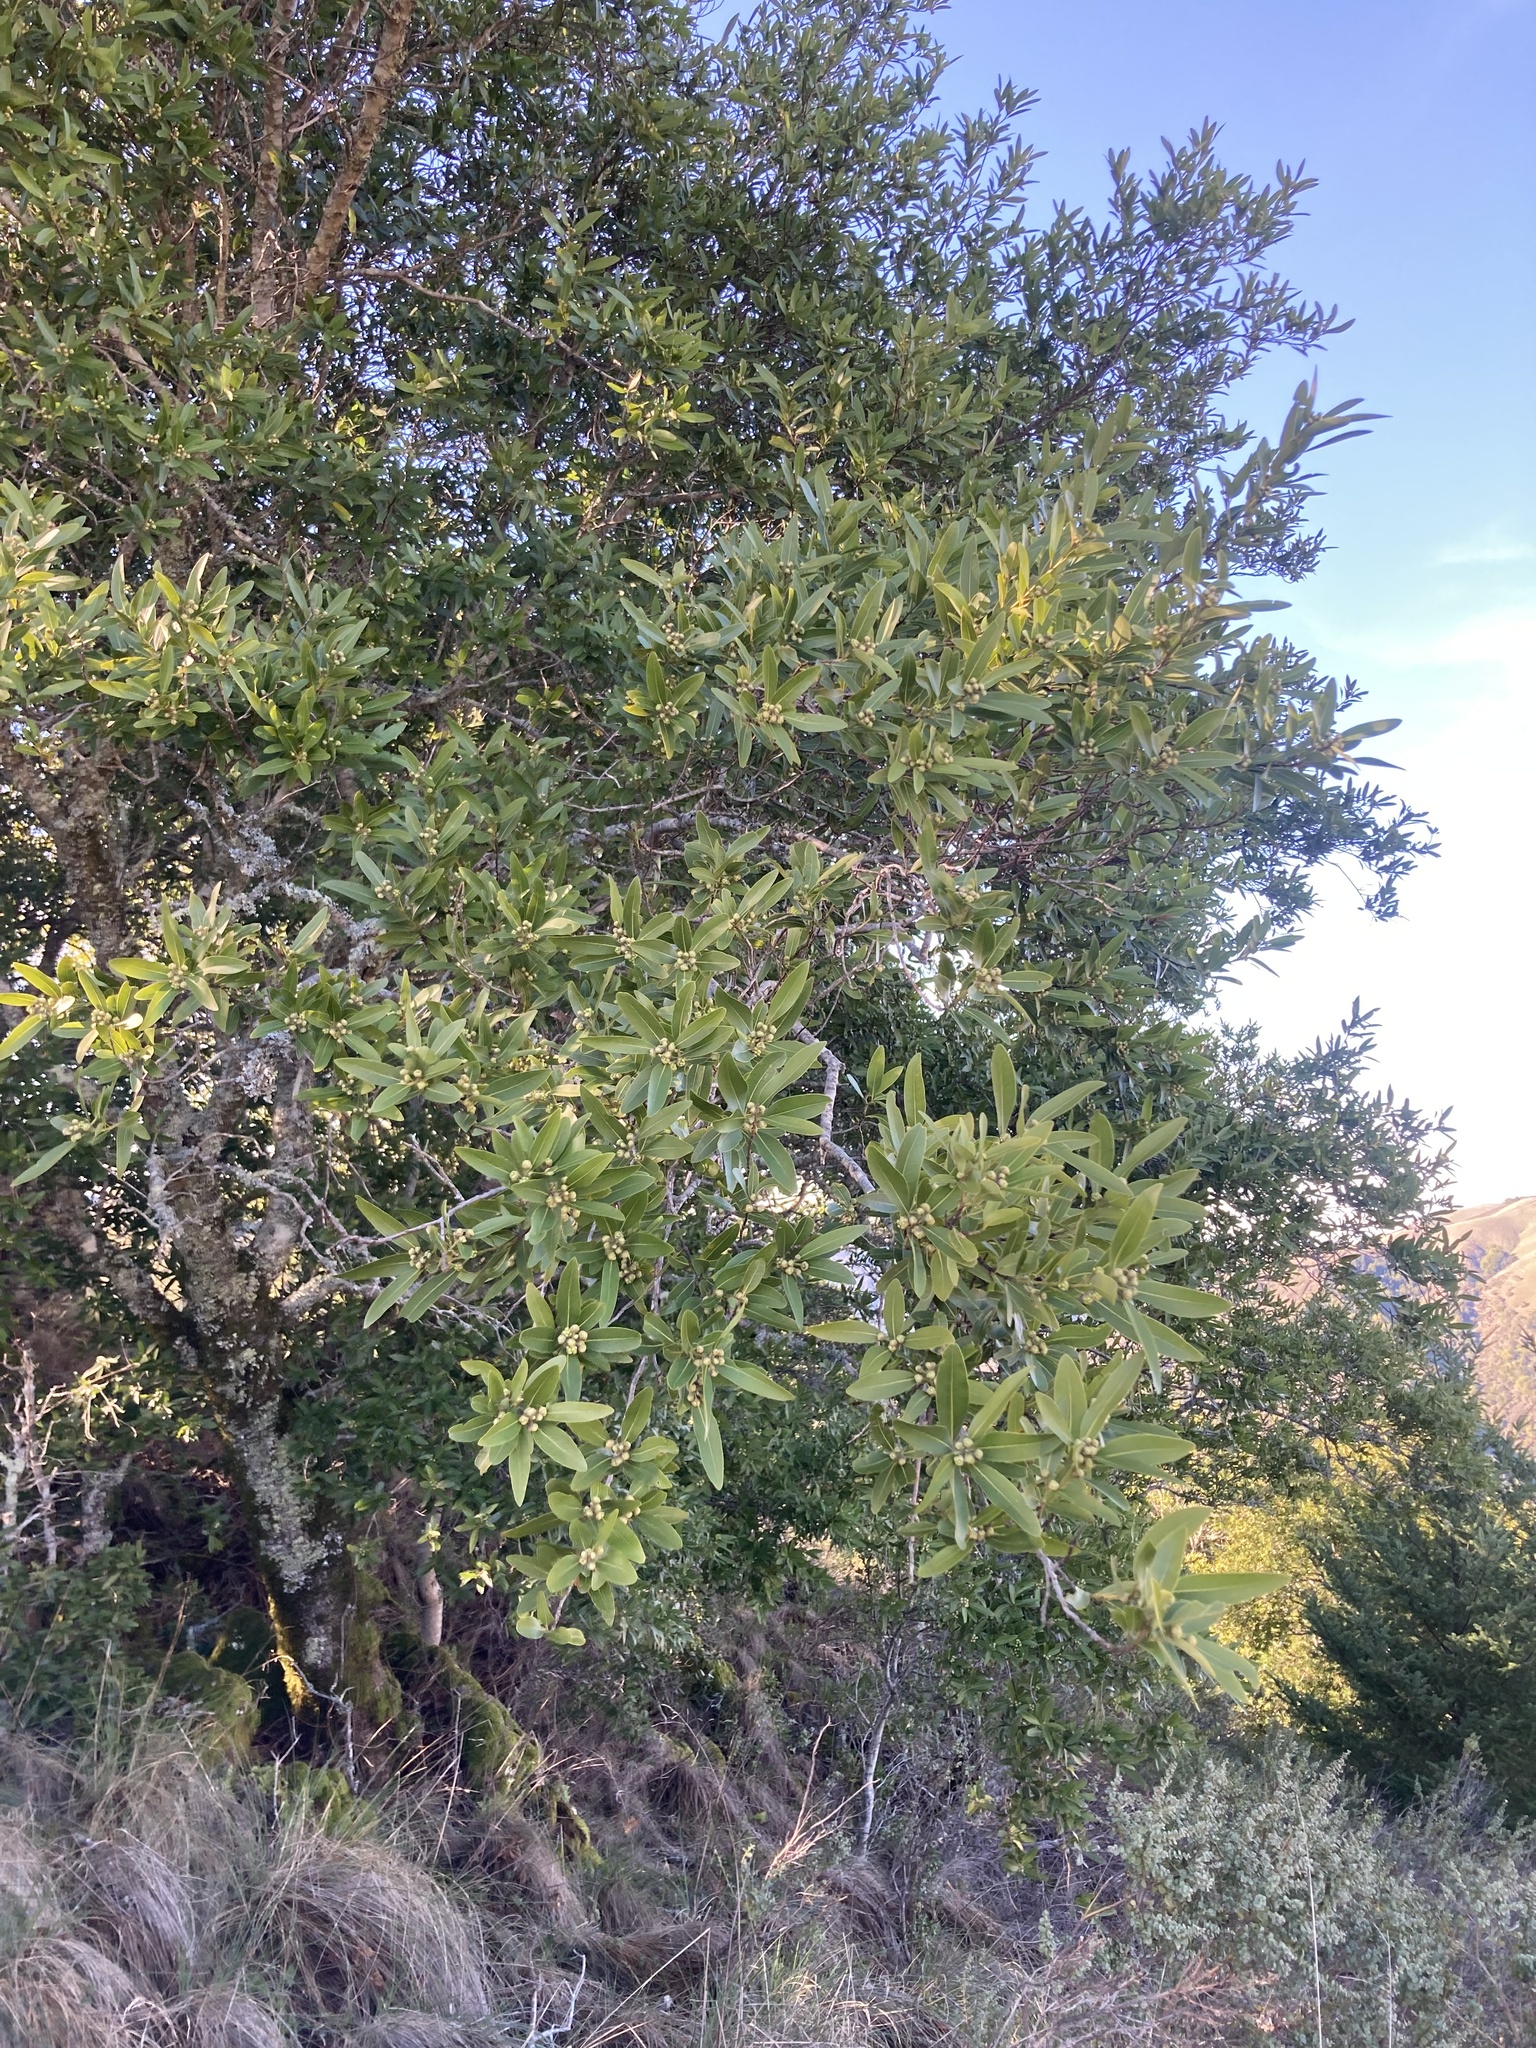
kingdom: Plantae
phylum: Tracheophyta
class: Magnoliopsida
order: Laurales
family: Lauraceae
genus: Umbellularia
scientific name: Umbellularia californica
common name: California bay
